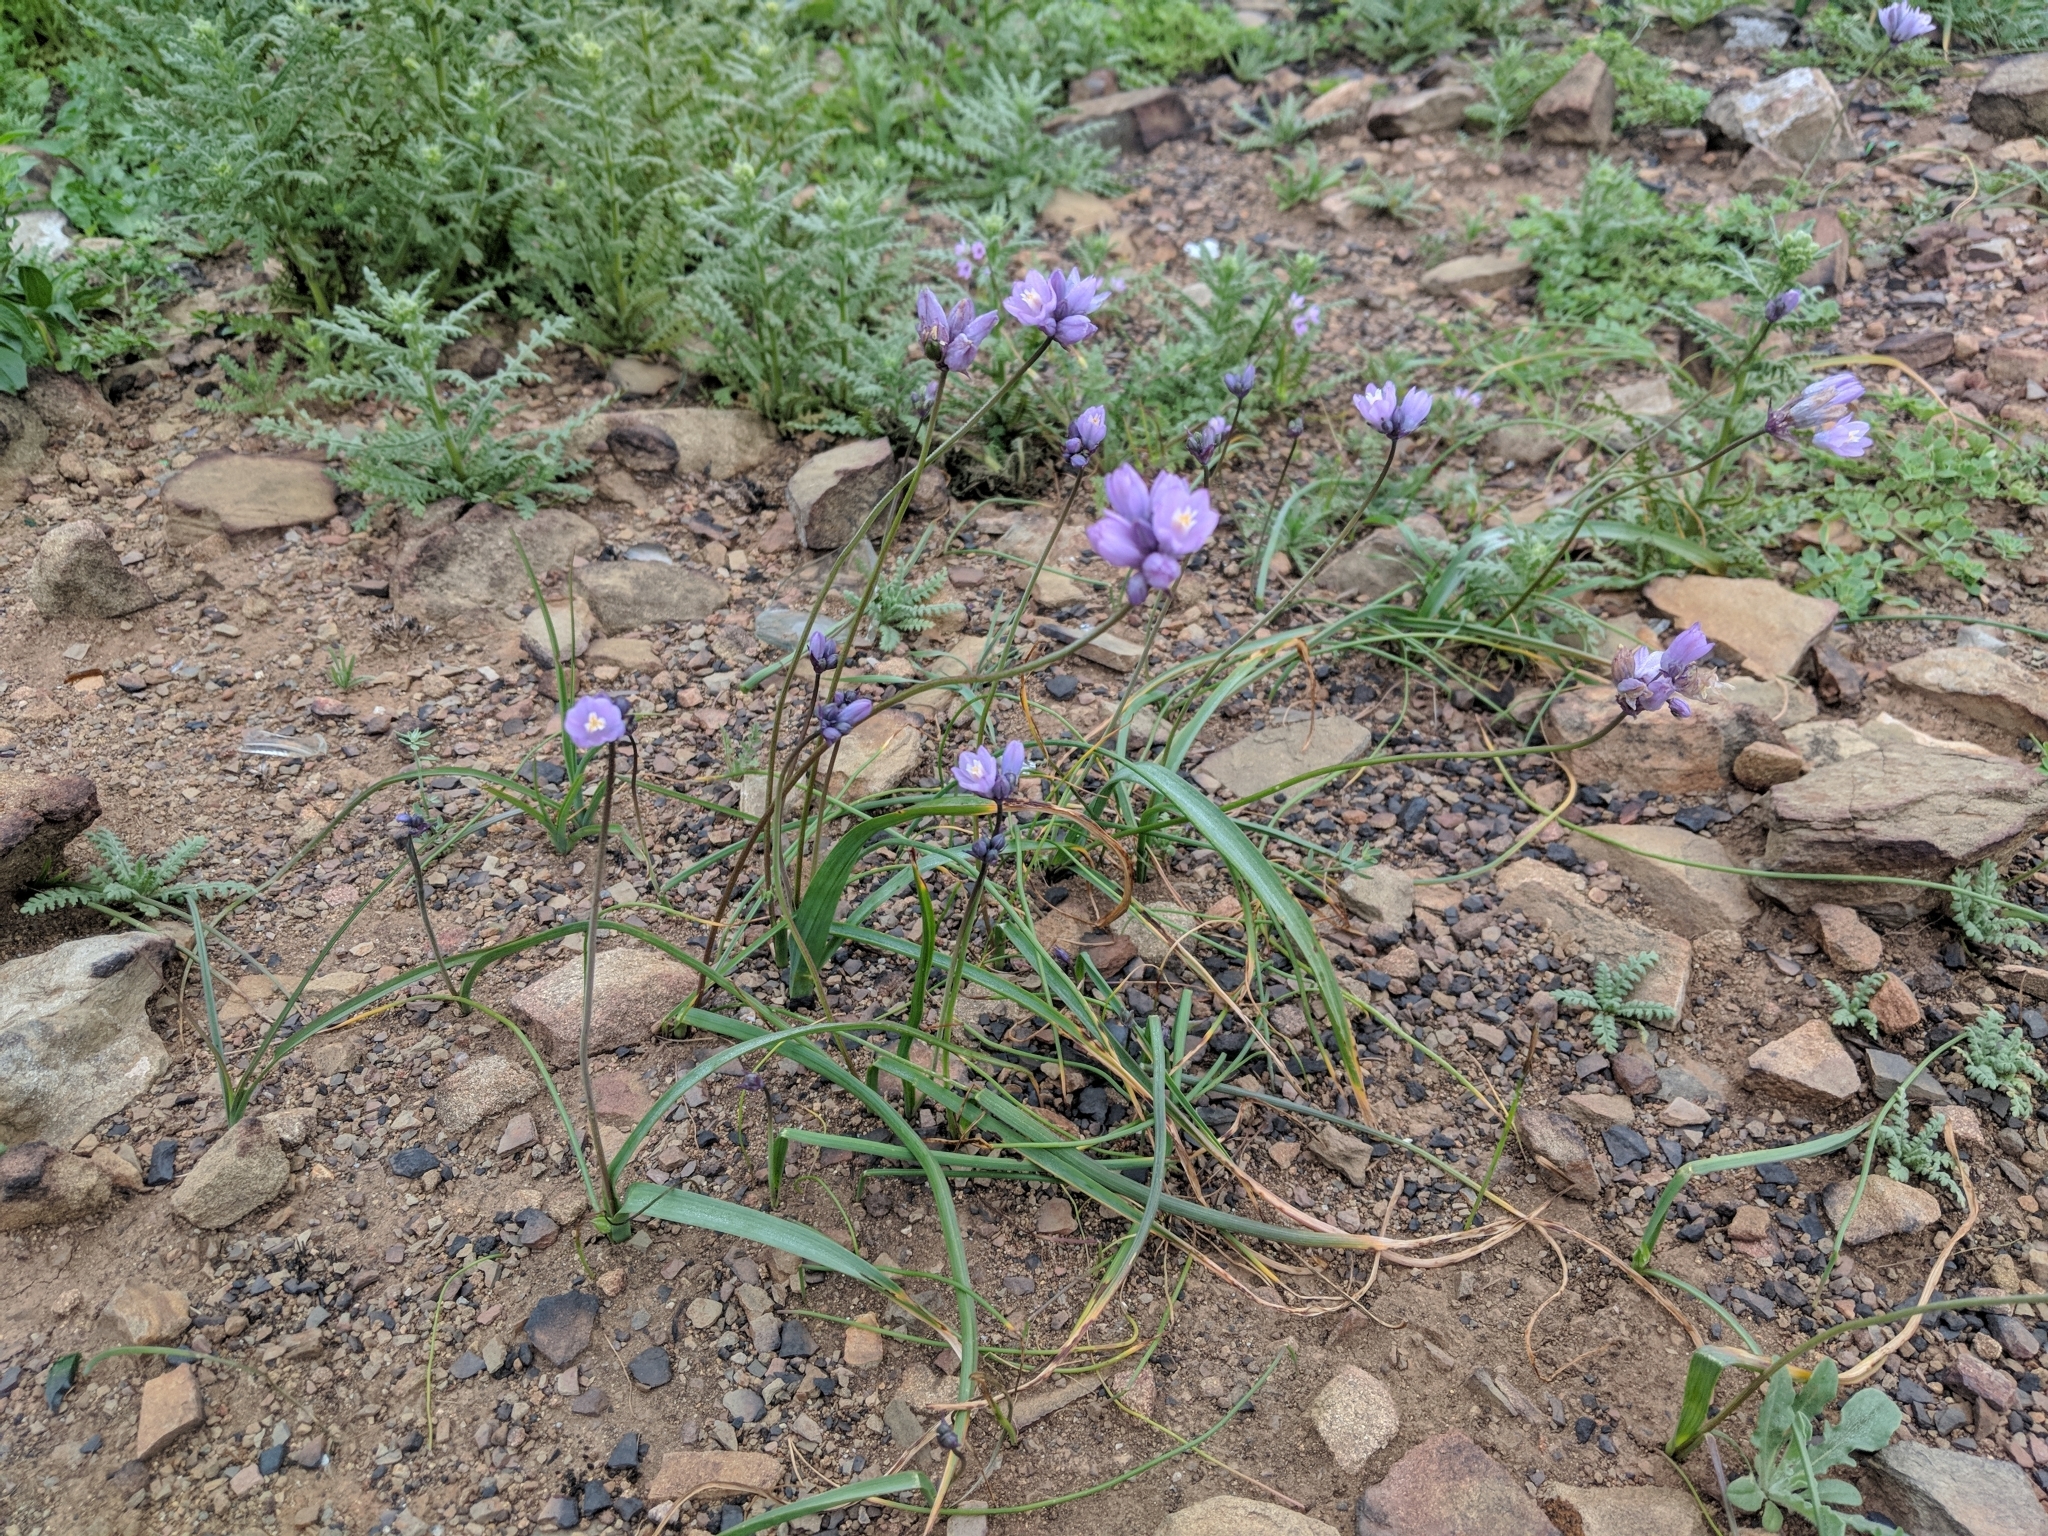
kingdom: Plantae
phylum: Tracheophyta
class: Liliopsida
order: Asparagales
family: Asparagaceae
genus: Dipterostemon
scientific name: Dipterostemon capitatus
